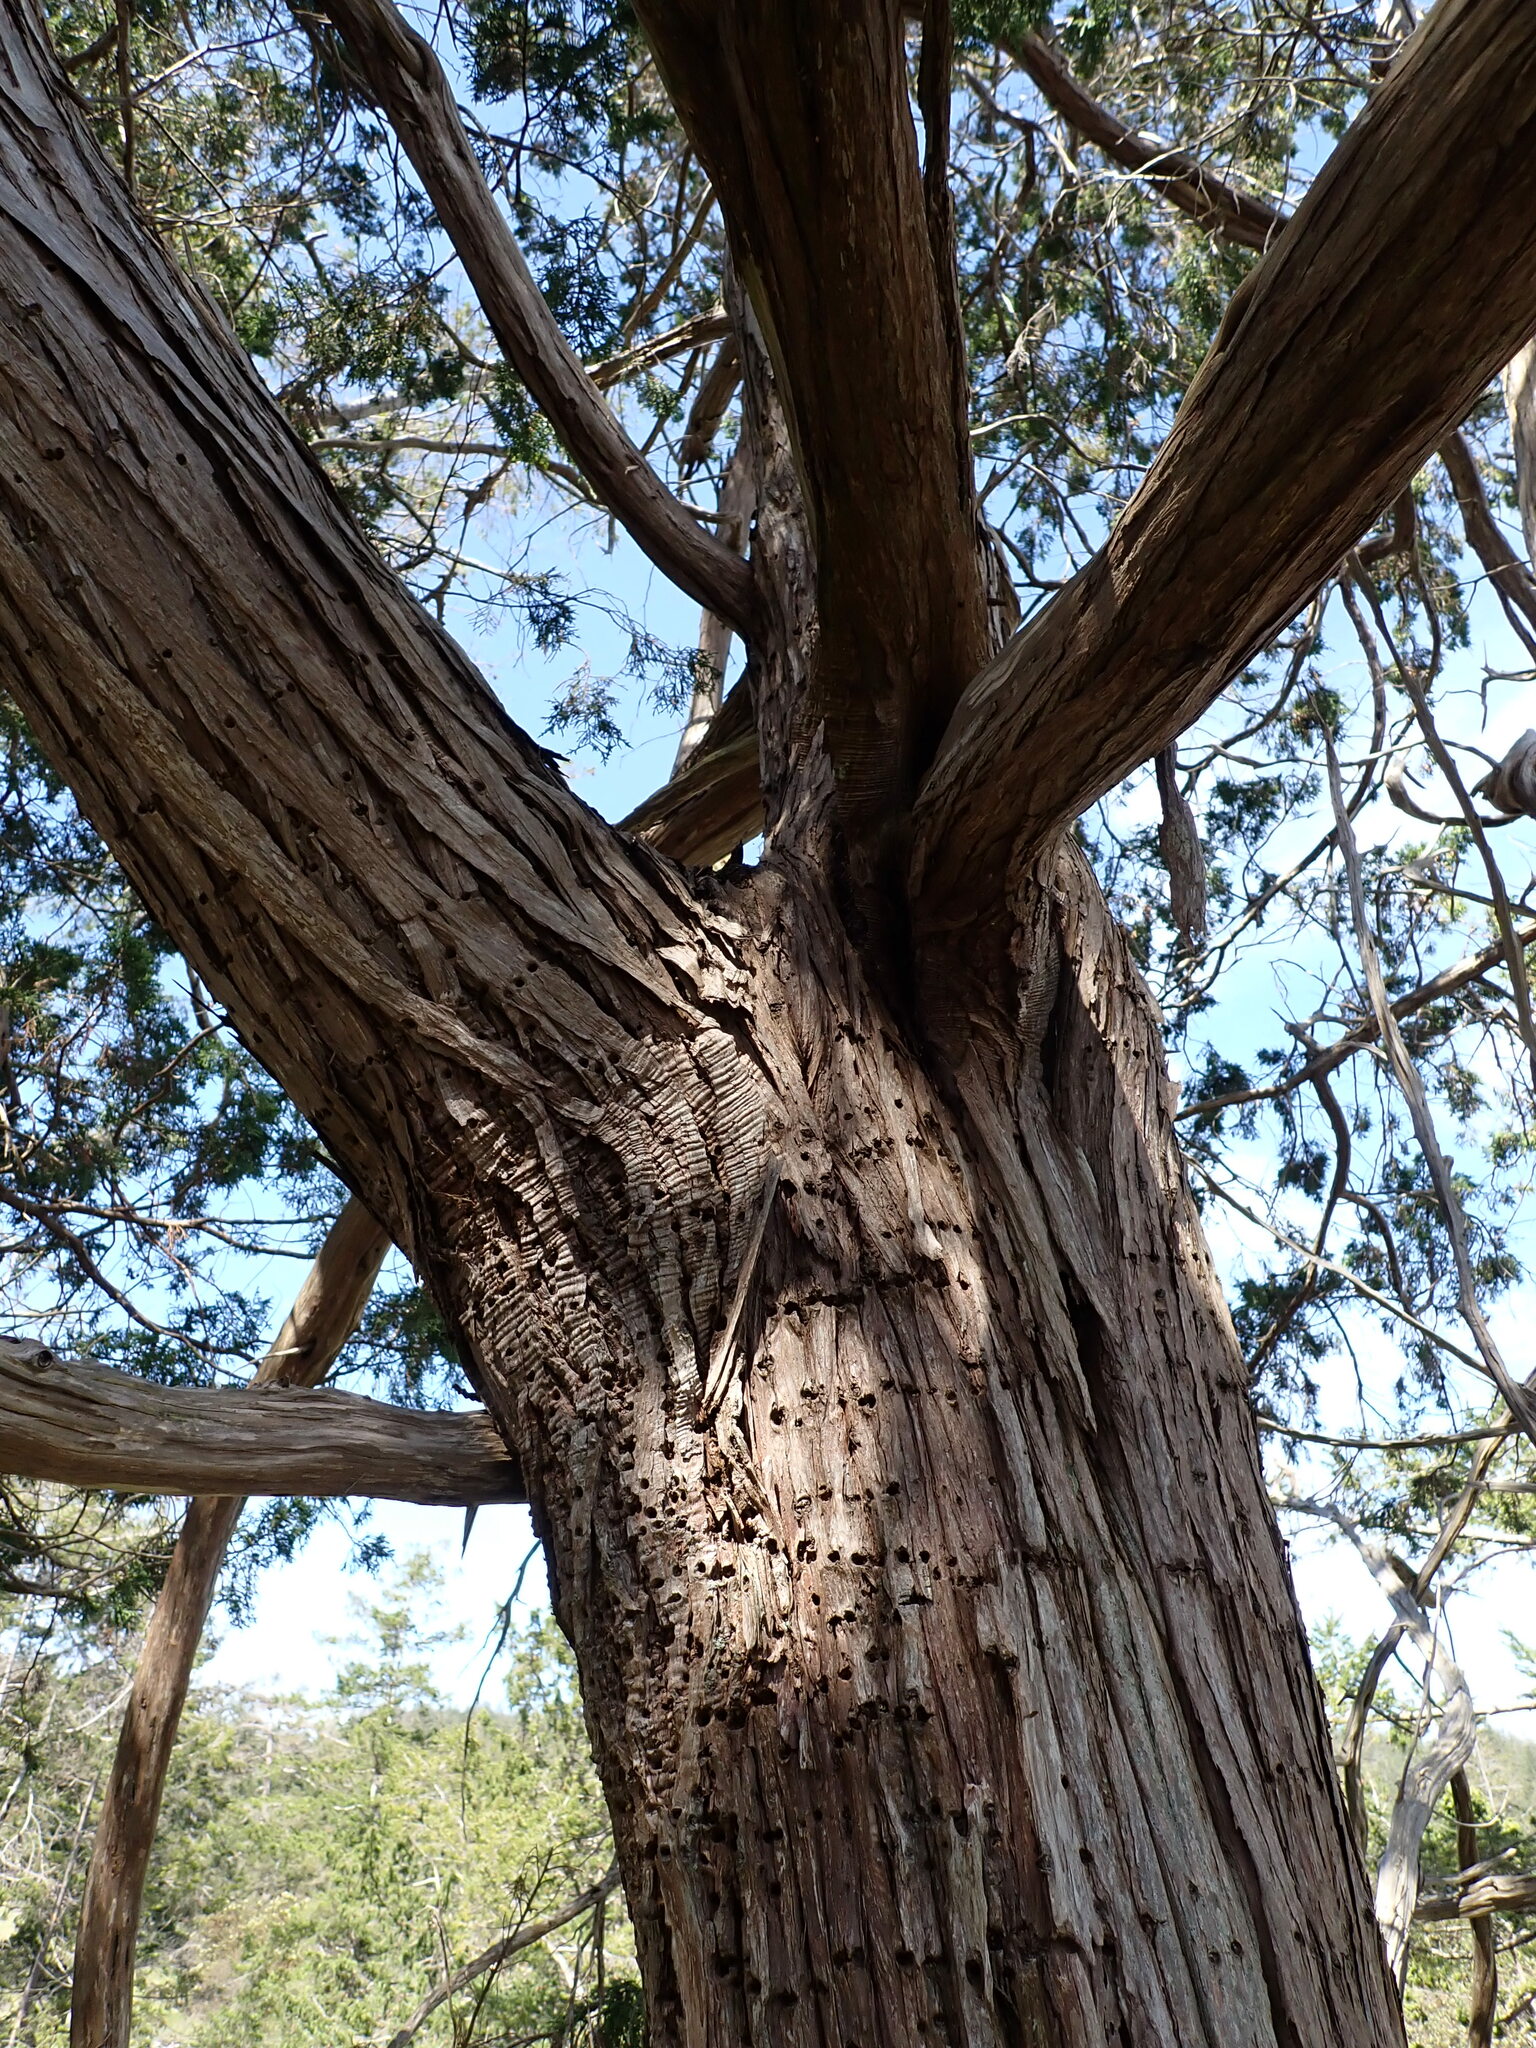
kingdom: Animalia
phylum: Chordata
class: Aves
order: Piciformes
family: Picidae
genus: Sphyrapicus
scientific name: Sphyrapicus ruber
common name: Red-breasted sapsucker
